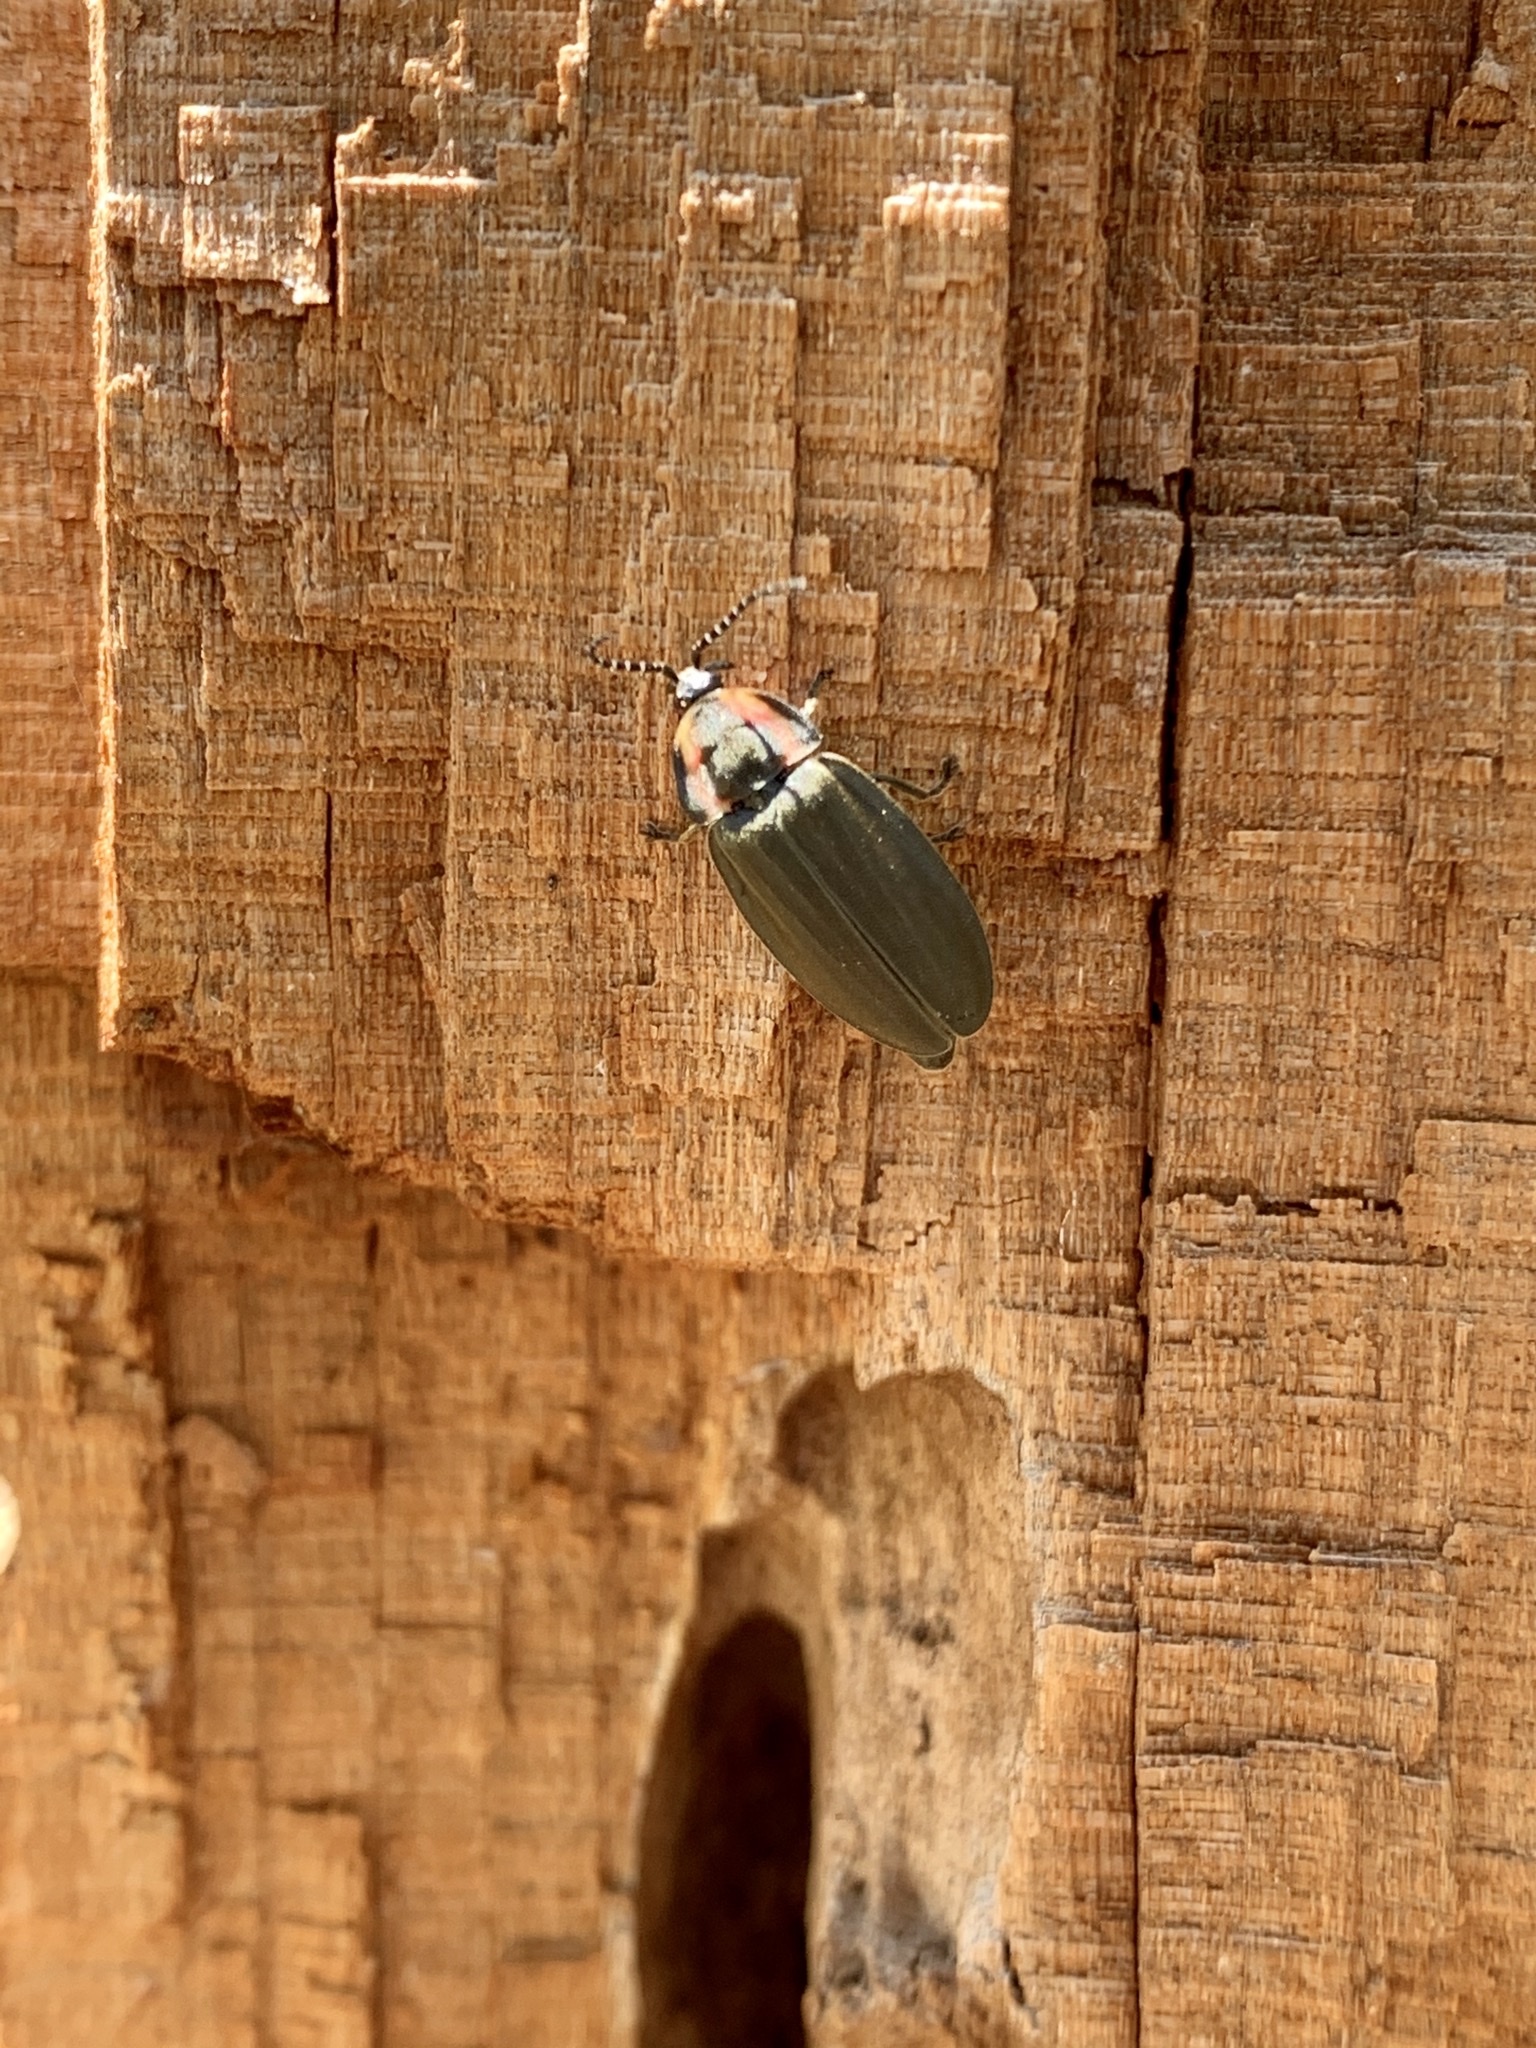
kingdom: Animalia
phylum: Arthropoda
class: Insecta
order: Coleoptera
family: Lampyridae
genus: Photinus
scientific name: Photinus corrusca
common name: Winter firefly
